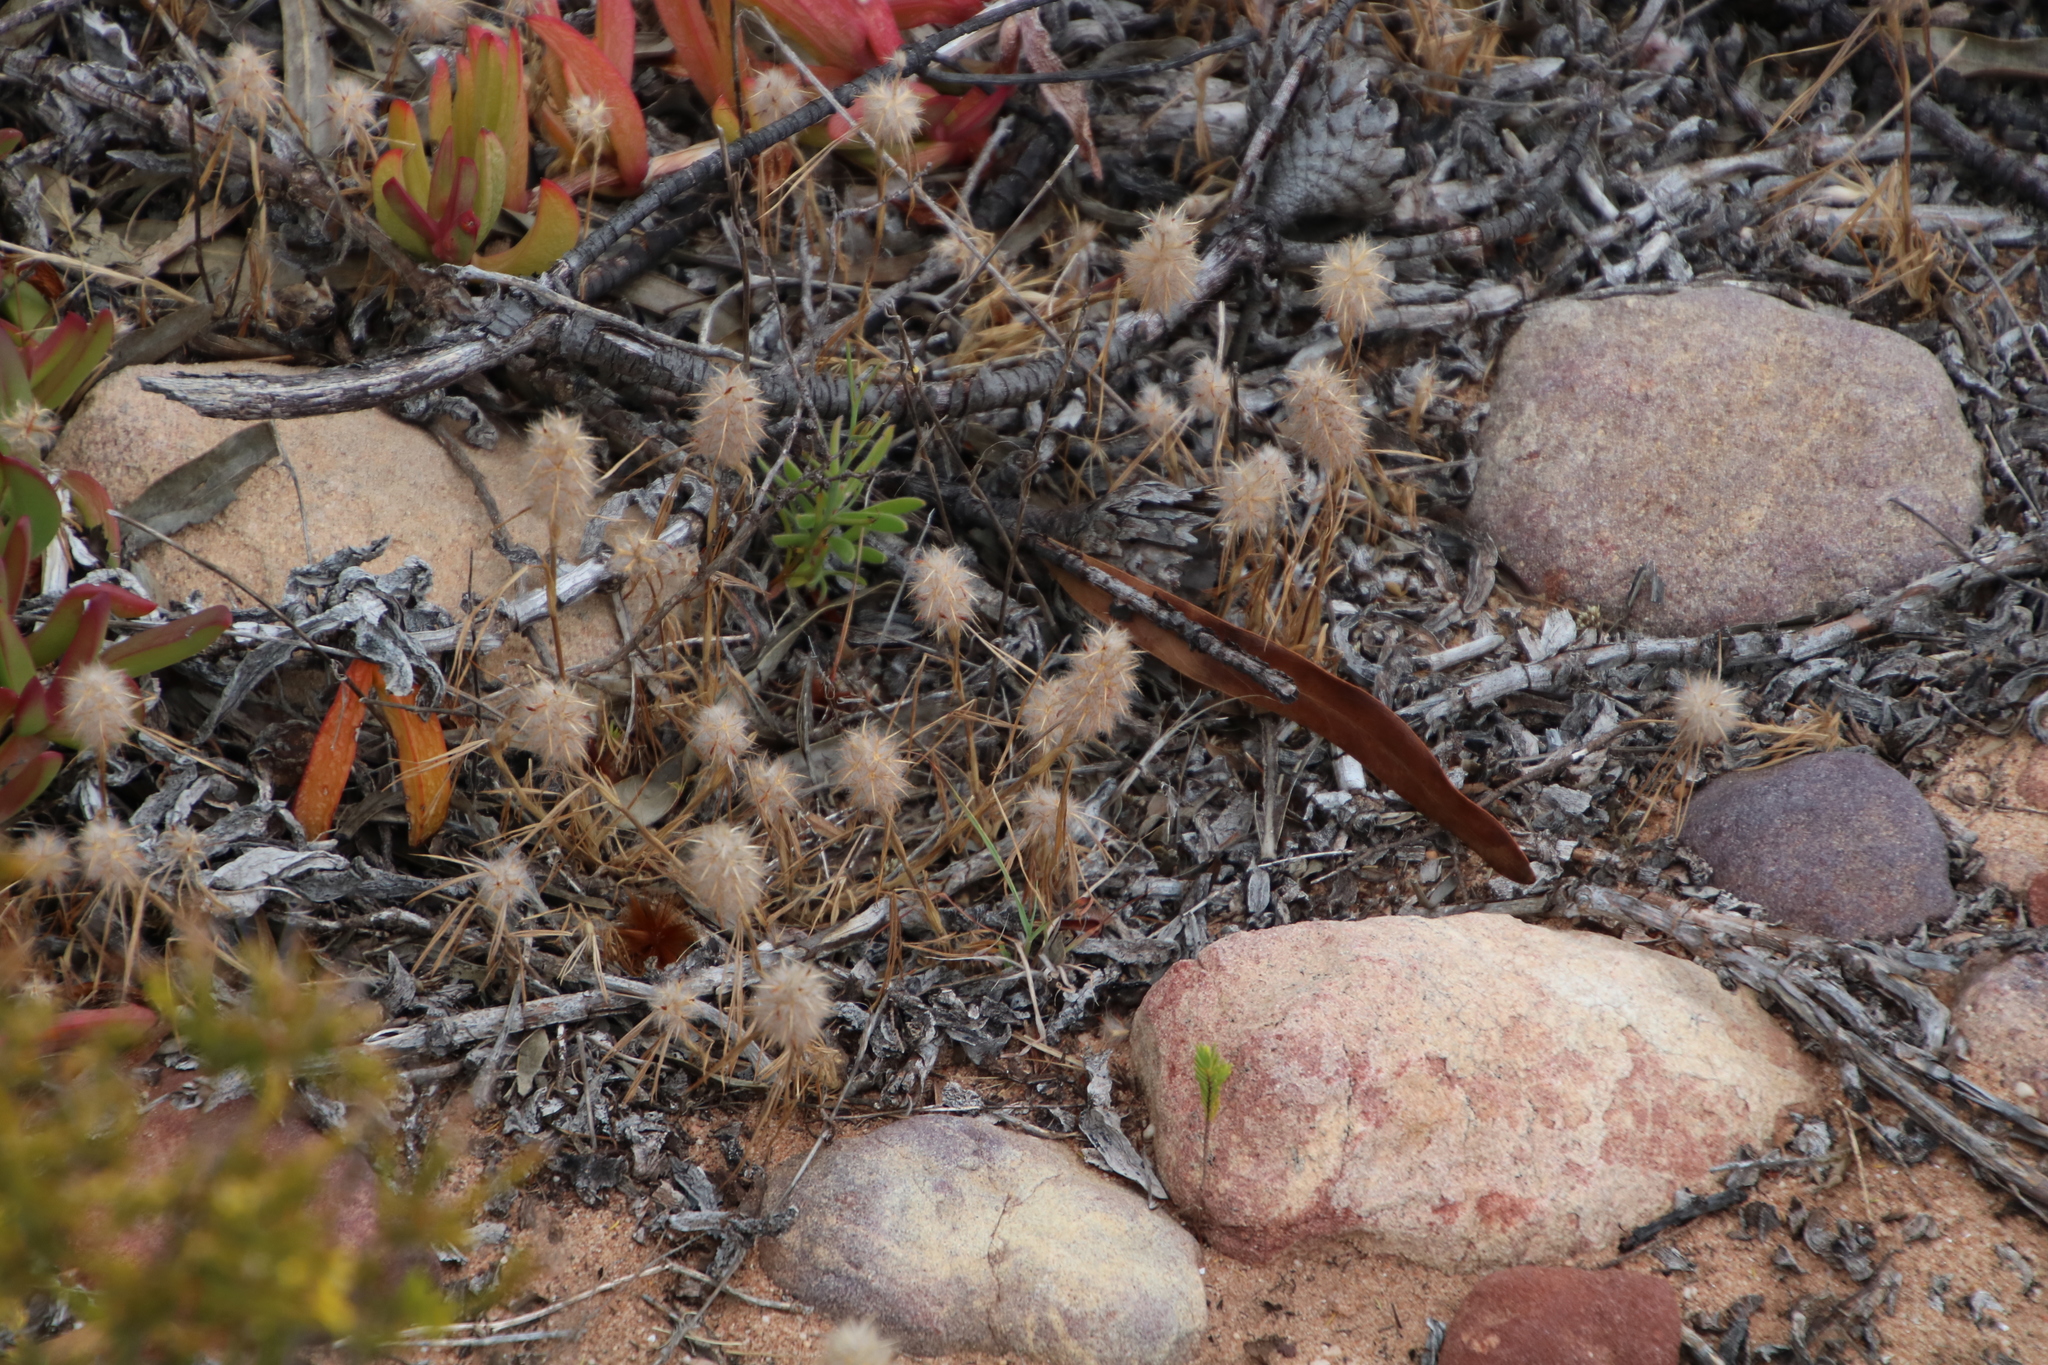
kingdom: Plantae
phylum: Tracheophyta
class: Magnoliopsida
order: Fabales
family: Fabaceae
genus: Trifolium
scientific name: Trifolium angustifolium
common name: Narrow clover
